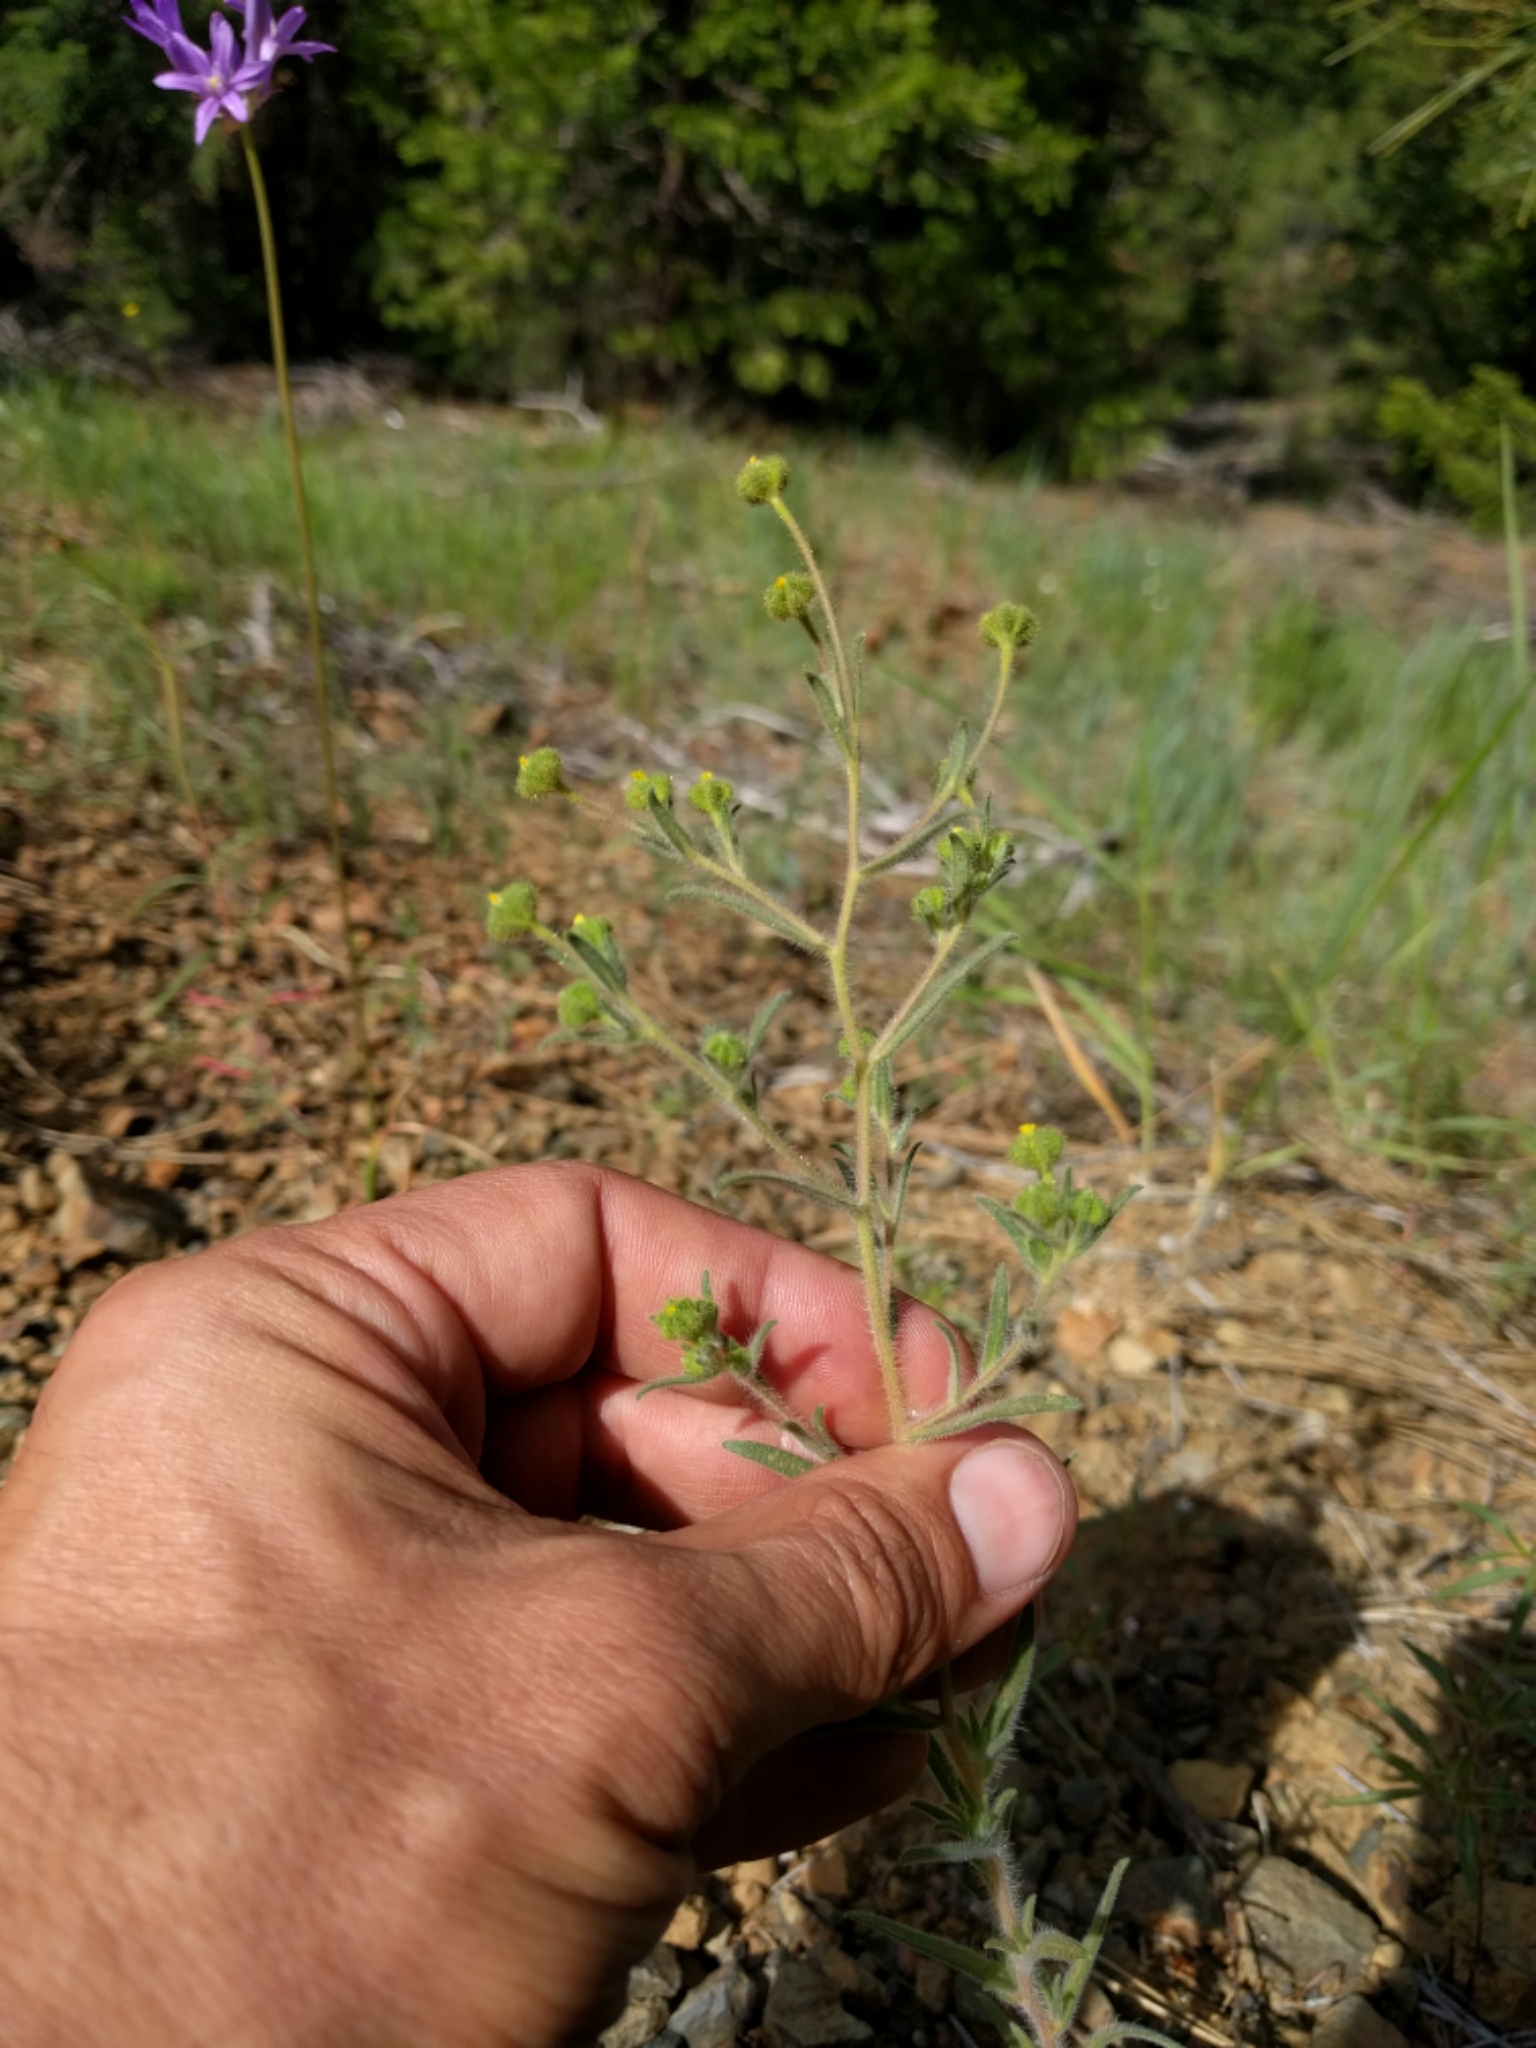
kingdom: Plantae
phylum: Tracheophyta
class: Magnoliopsida
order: Asterales
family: Asteraceae
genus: Madia
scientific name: Madia exigua
